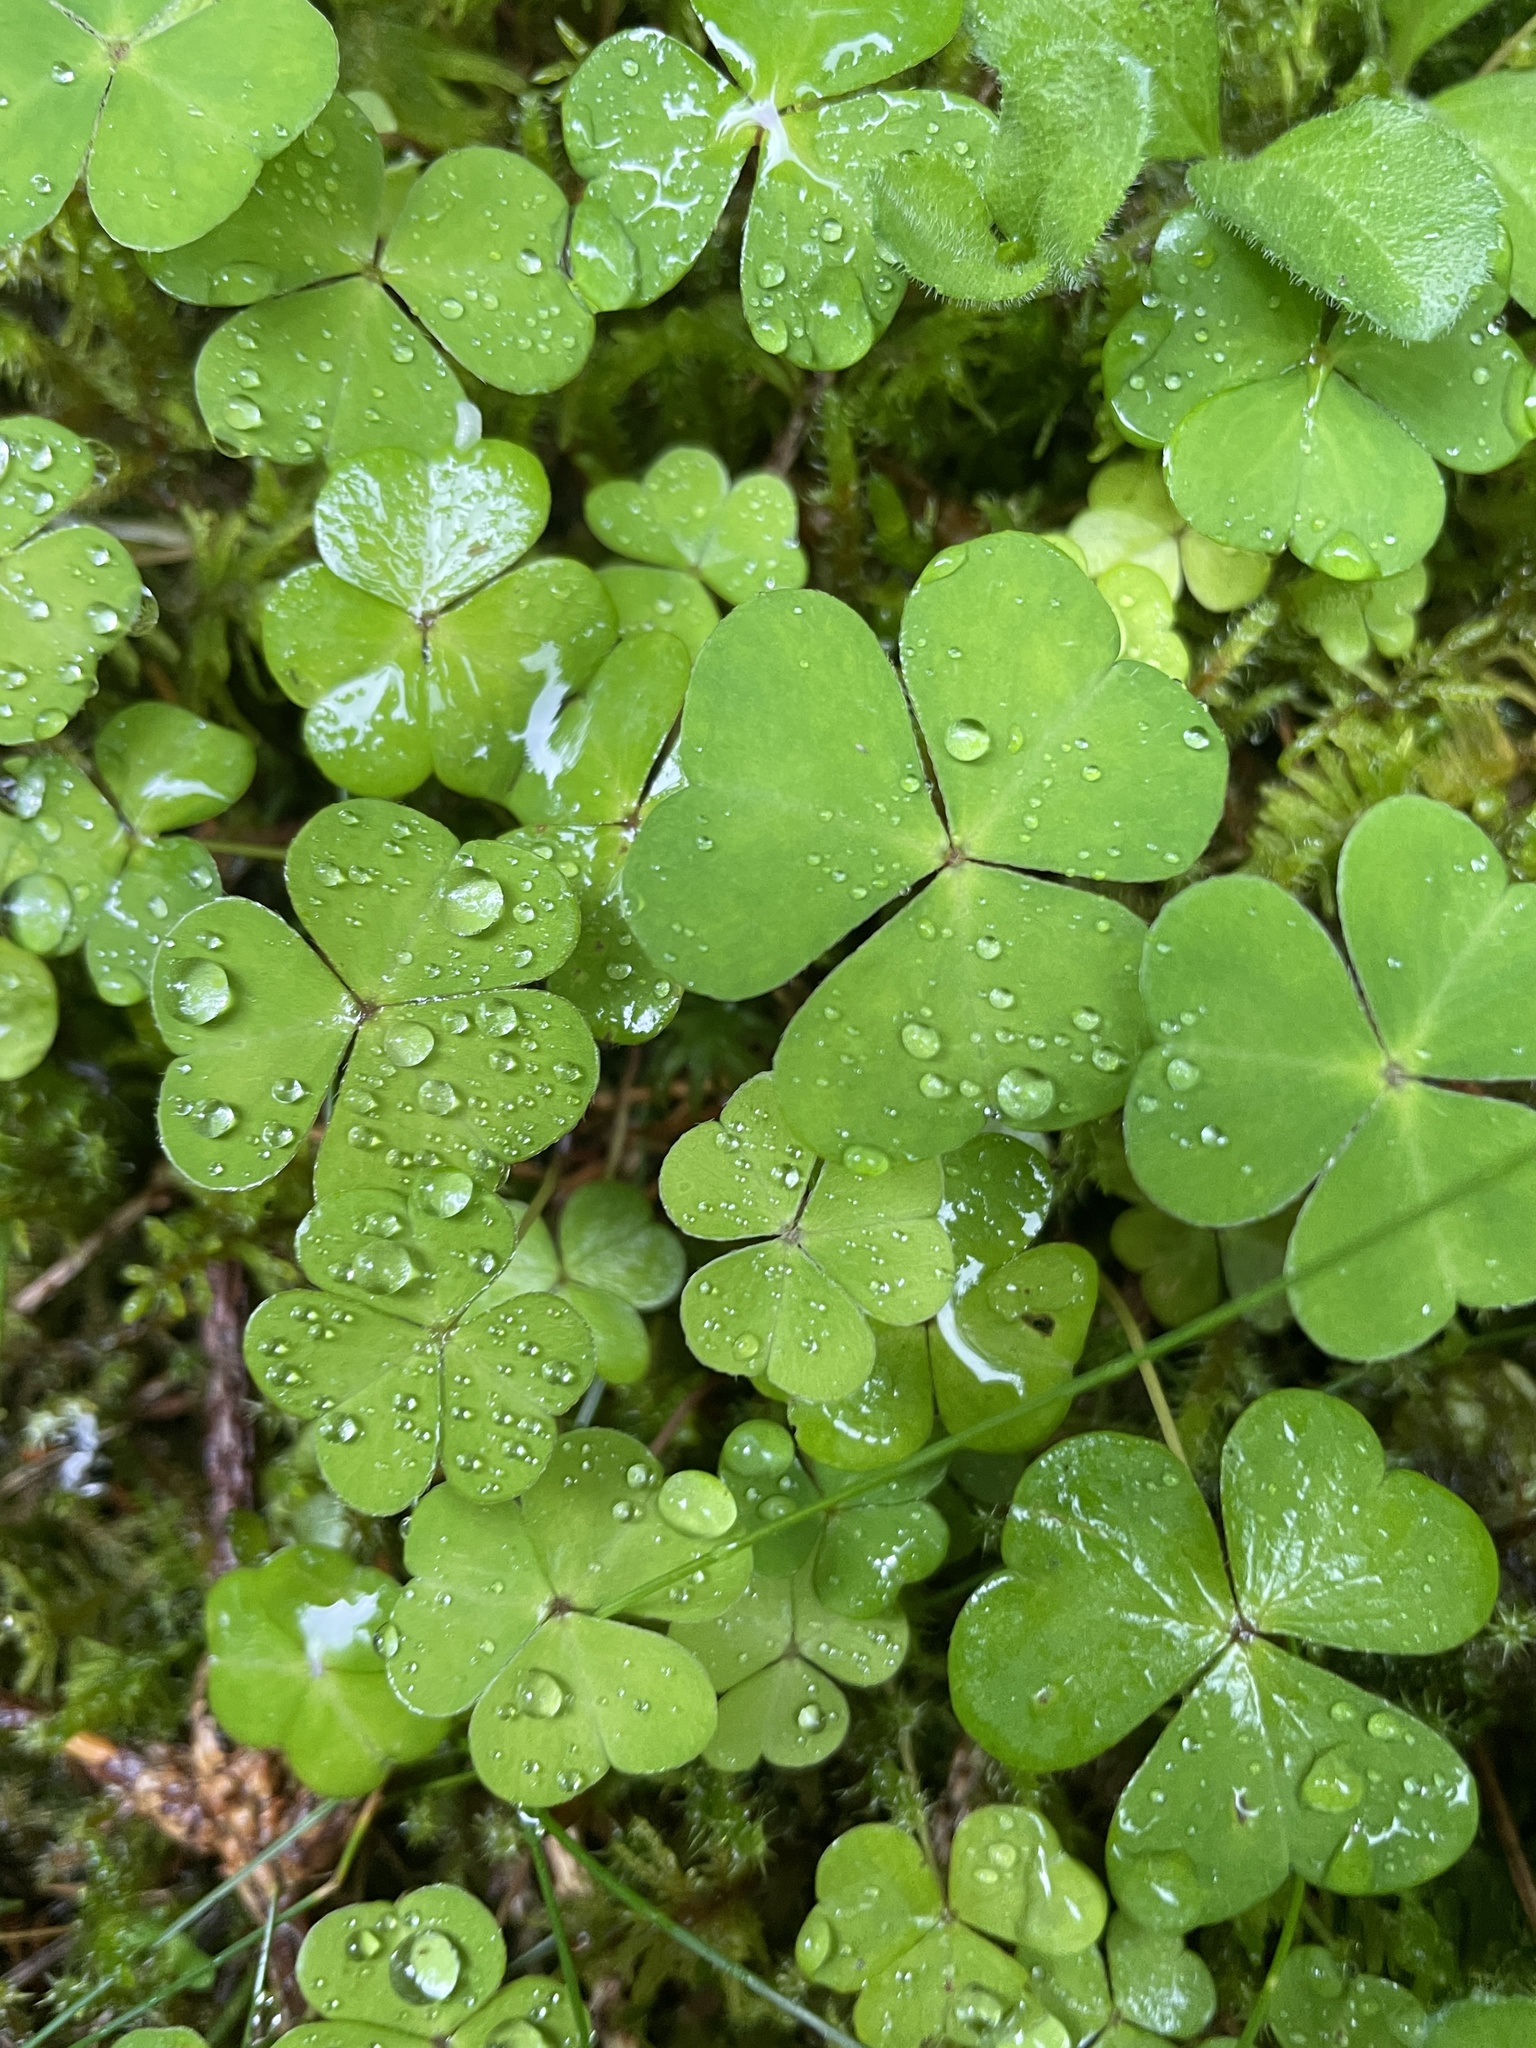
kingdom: Plantae
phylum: Tracheophyta
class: Magnoliopsida
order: Oxalidales
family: Oxalidaceae
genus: Oxalis
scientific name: Oxalis acetosella
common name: Wood-sorrel
